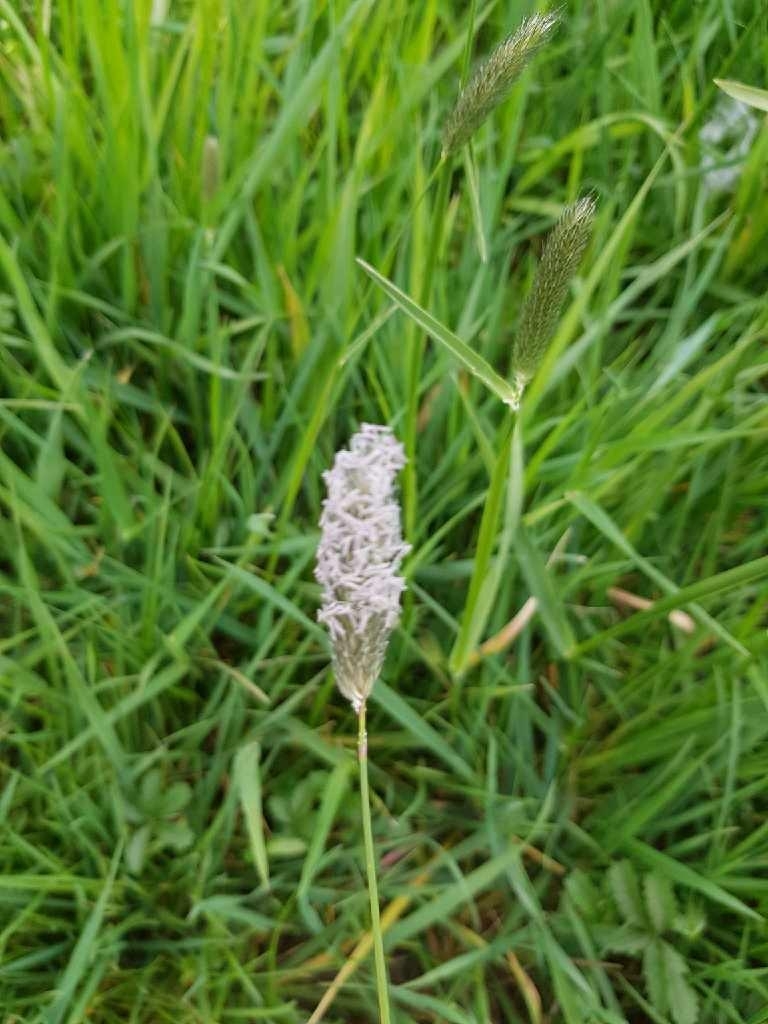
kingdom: Plantae
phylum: Tracheophyta
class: Liliopsida
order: Poales
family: Poaceae
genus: Alopecurus
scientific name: Alopecurus pratensis
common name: Meadow foxtail
